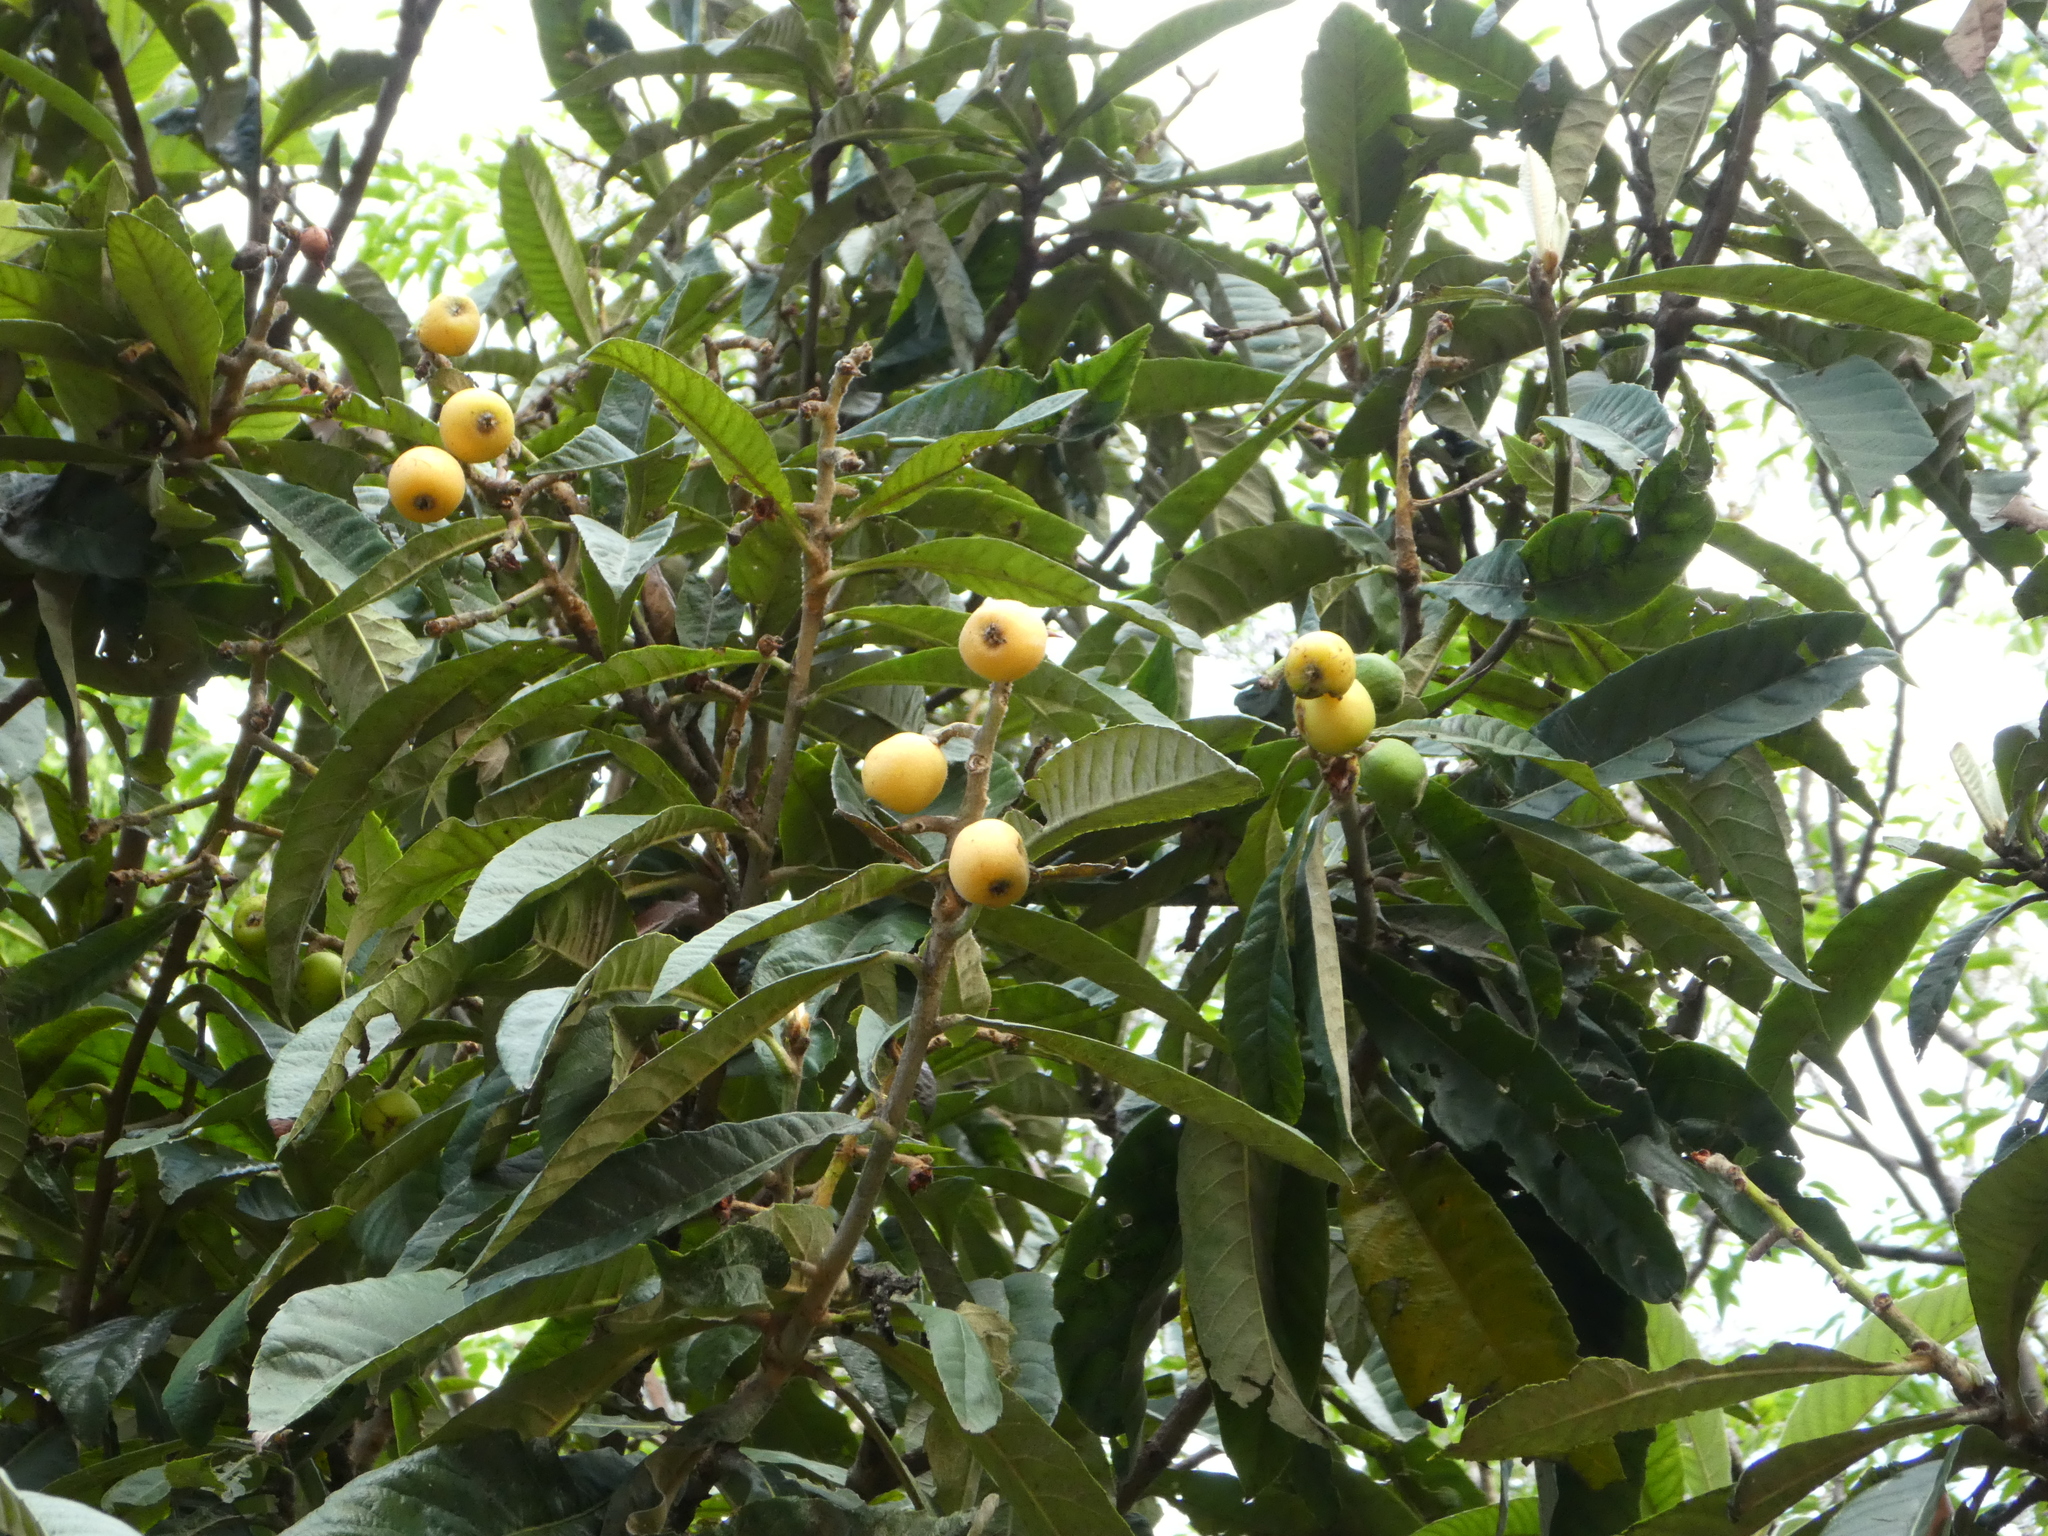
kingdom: Plantae
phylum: Tracheophyta
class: Magnoliopsida
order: Rosales
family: Rosaceae
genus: Rhaphiolepis
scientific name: Rhaphiolepis bibas
